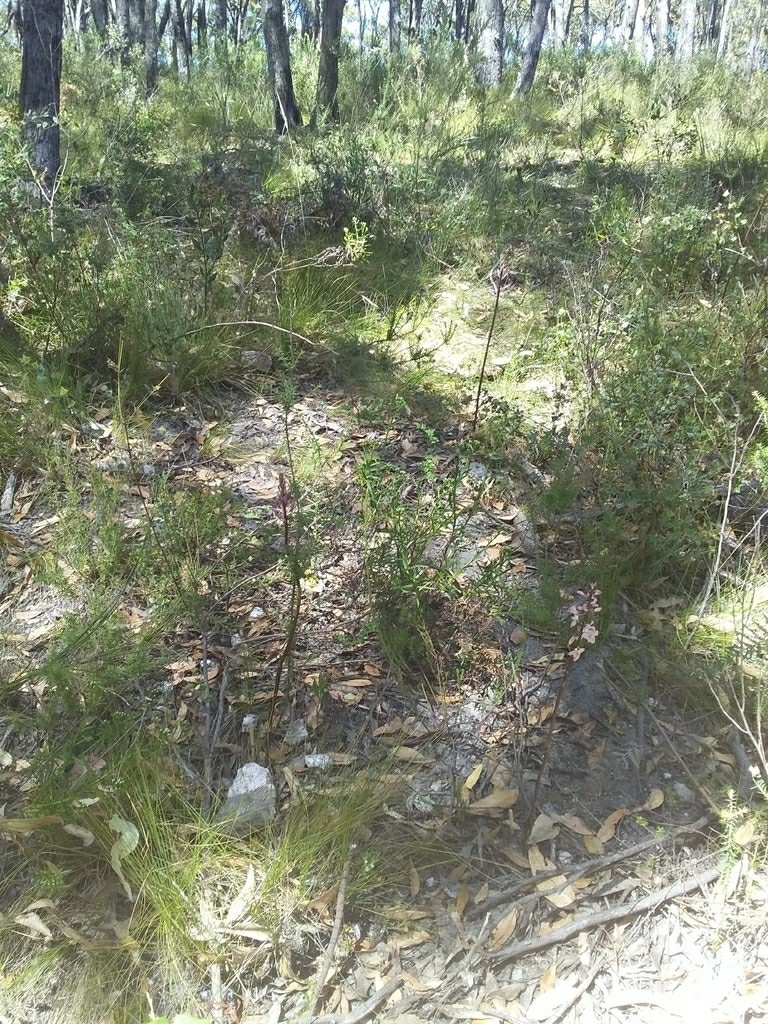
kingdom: Plantae
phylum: Tracheophyta
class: Liliopsida
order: Asparagales
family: Orchidaceae
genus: Dipodium
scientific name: Dipodium pardalinum
